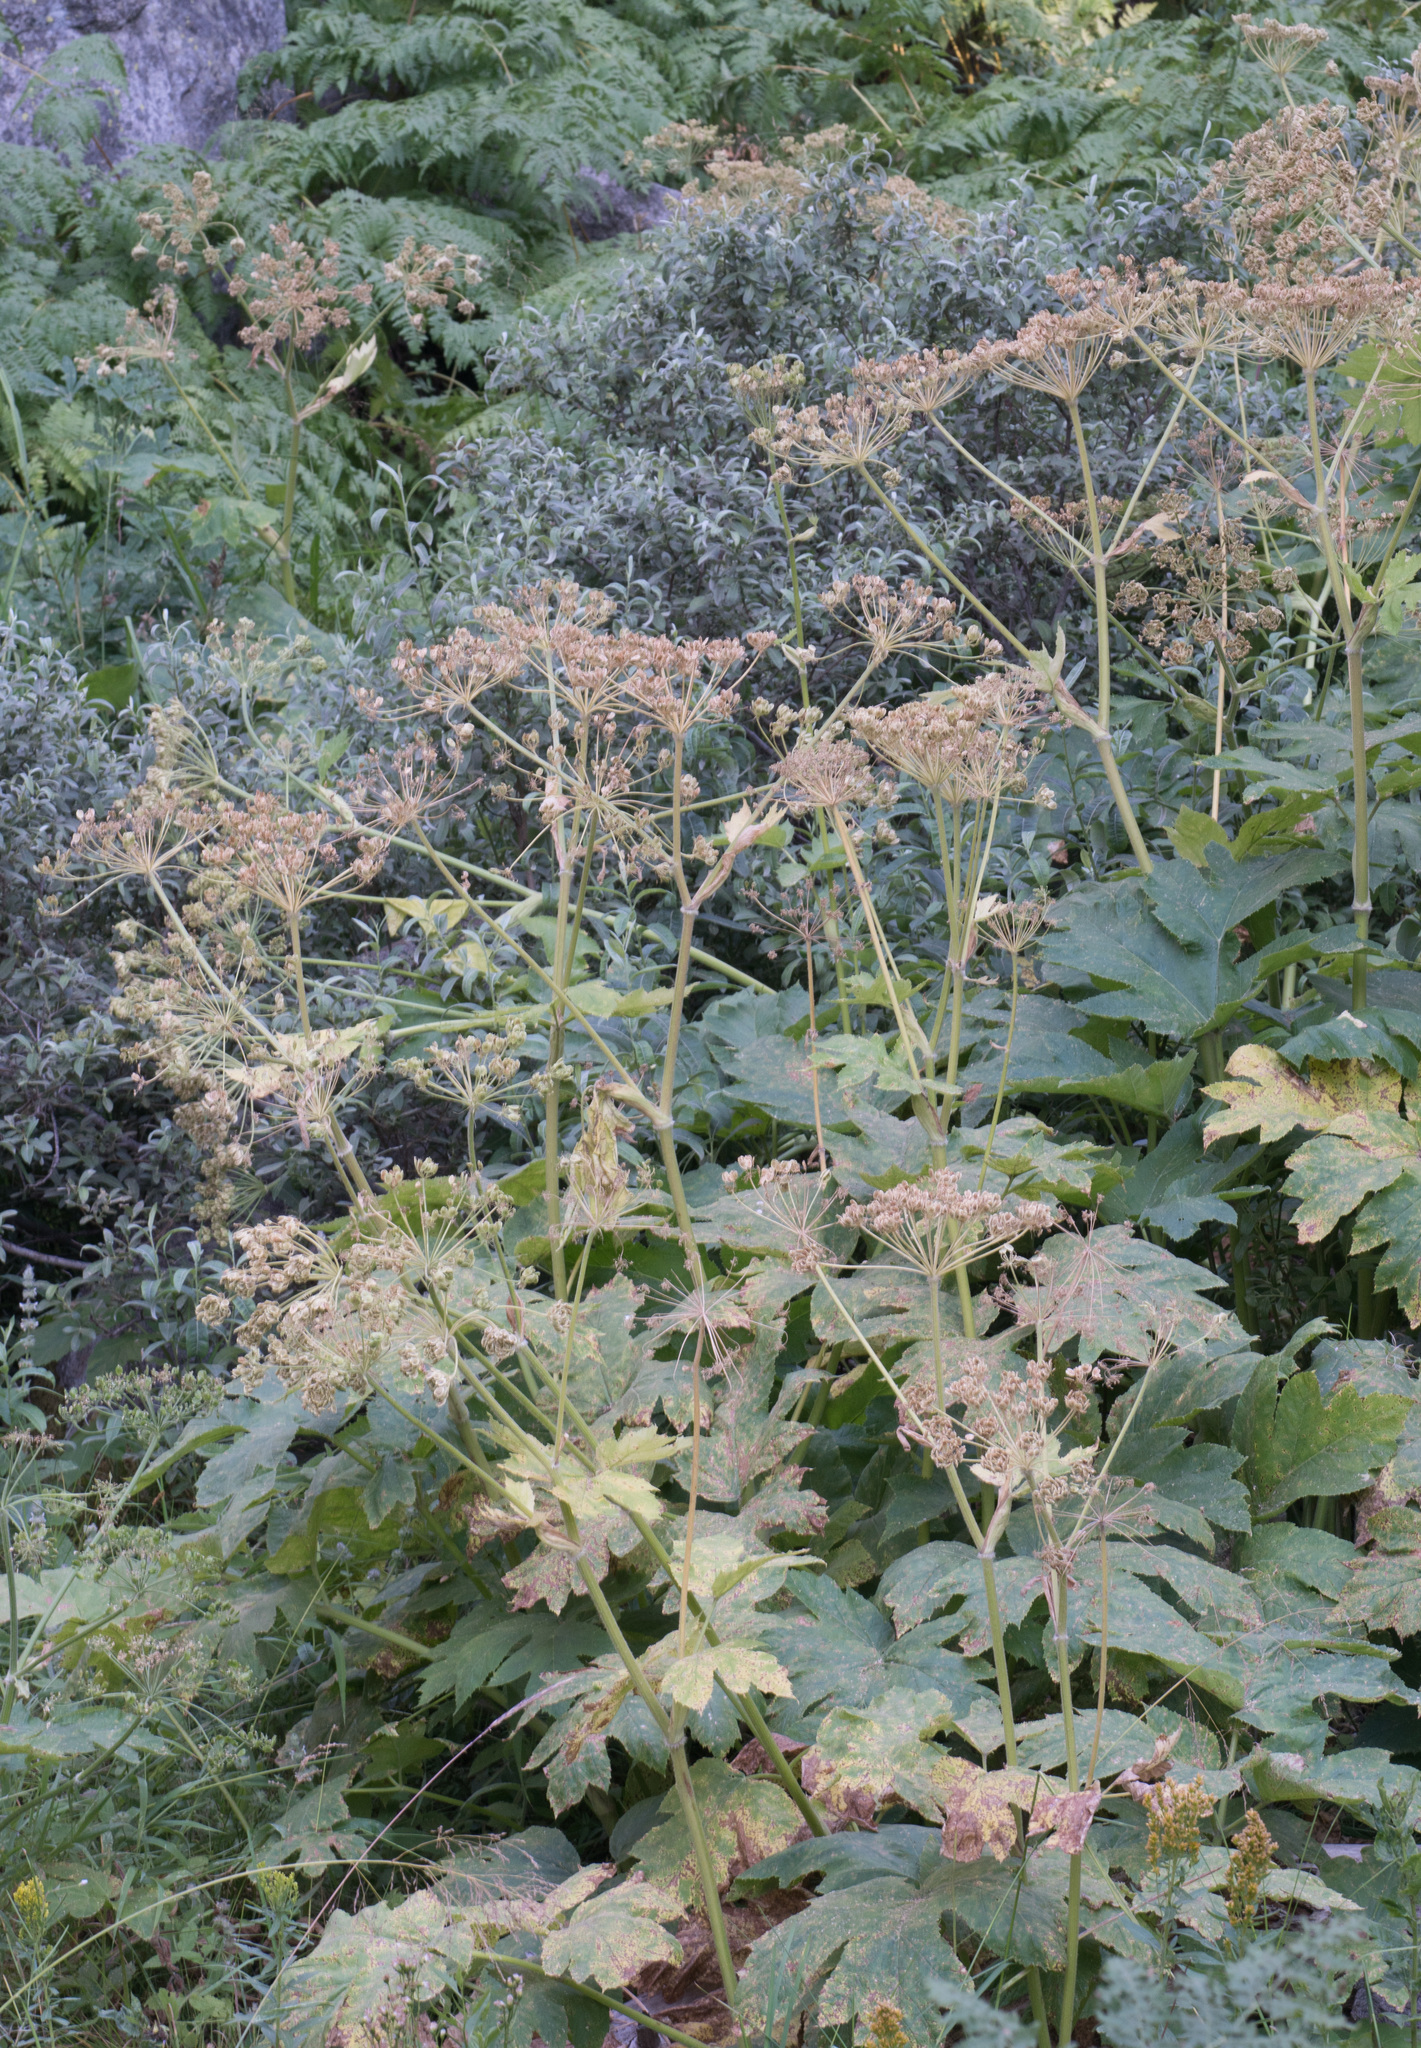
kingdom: Plantae
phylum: Tracheophyta
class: Magnoliopsida
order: Apiales
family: Apiaceae
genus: Heracleum
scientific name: Heracleum maximum
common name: American cow parsnip
